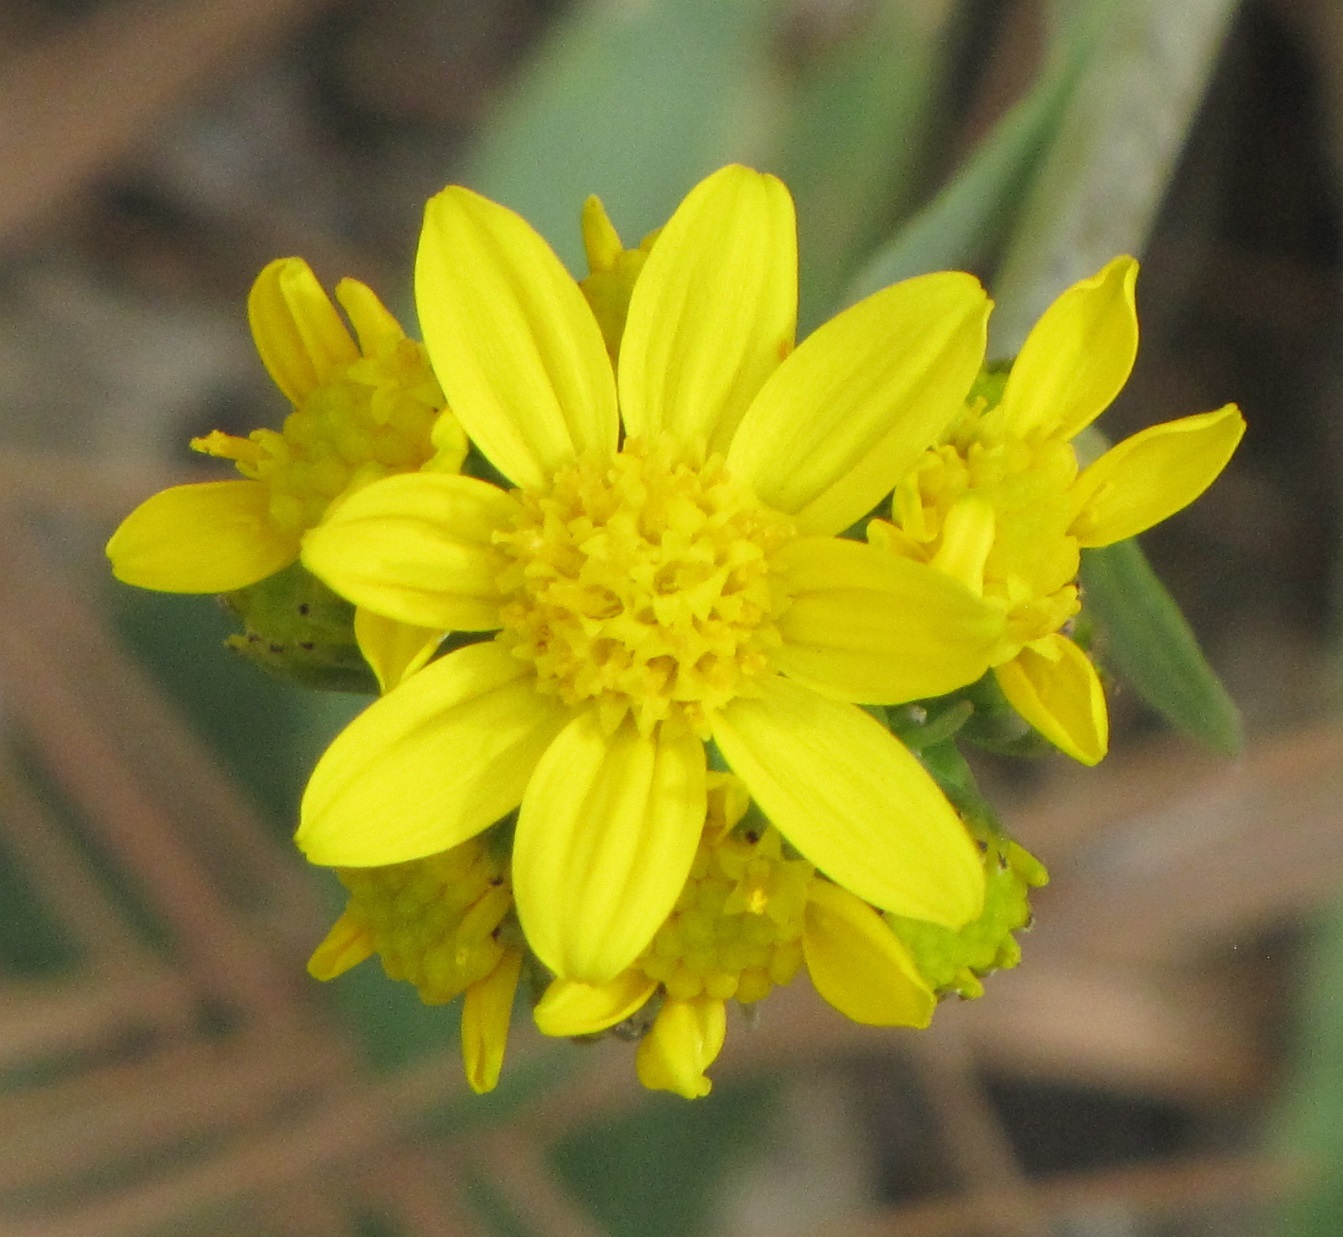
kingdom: Plantae
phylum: Tracheophyta
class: Magnoliopsida
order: Asterales
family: Asteraceae
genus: Senecio
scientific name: Senecio wootonii
